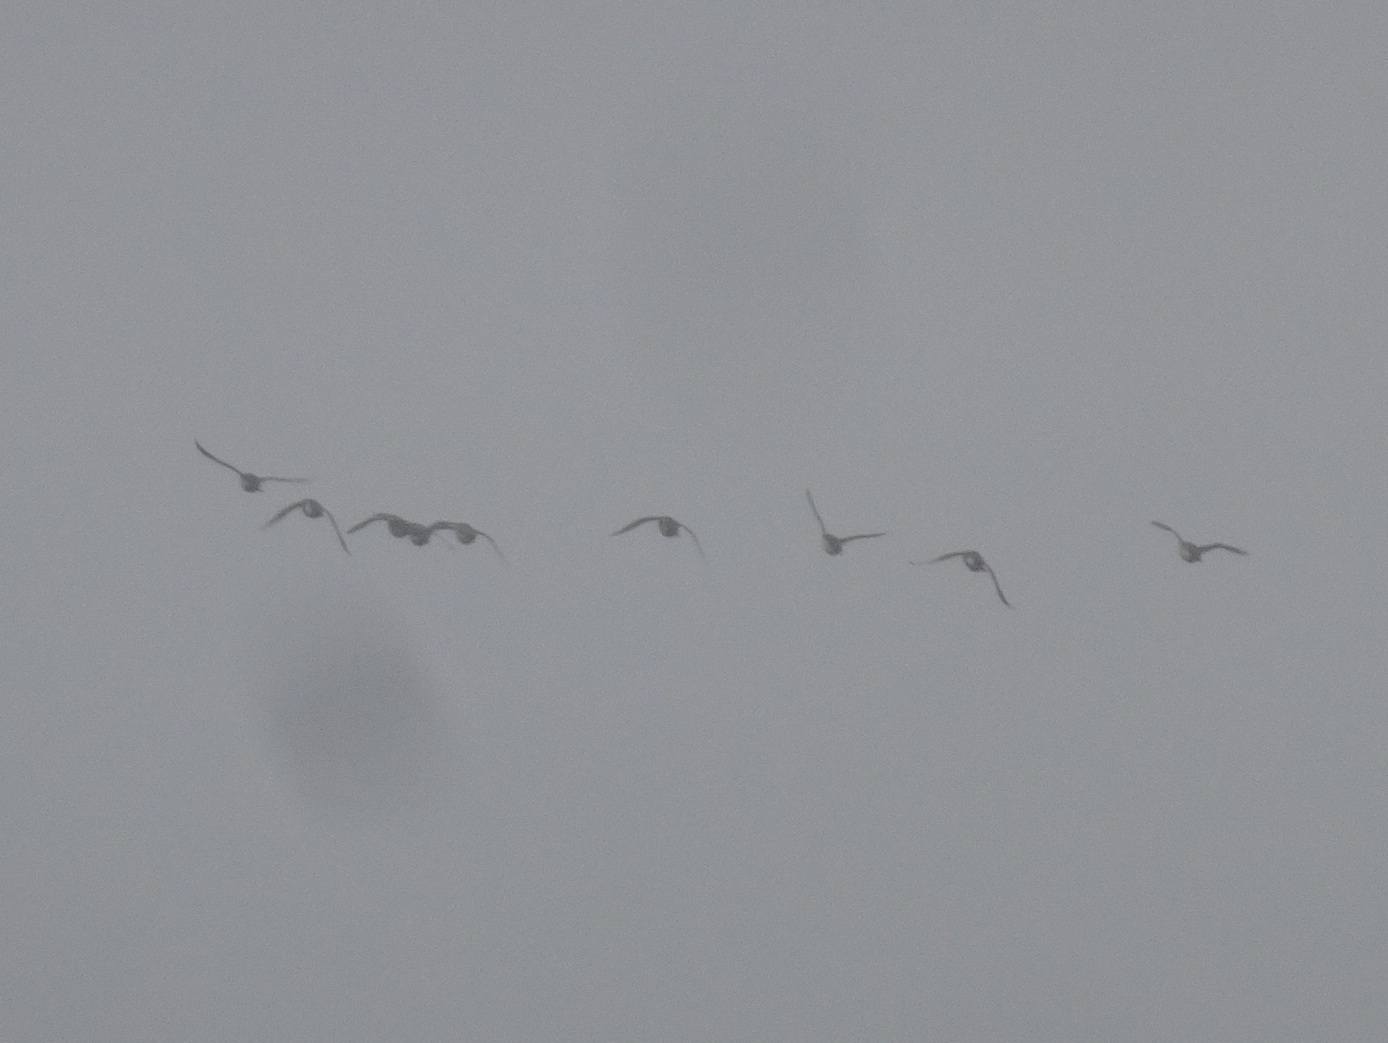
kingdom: Animalia
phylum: Chordata
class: Aves
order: Charadriiformes
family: Alcidae
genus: Uria
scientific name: Uria aalge
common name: Common murre
